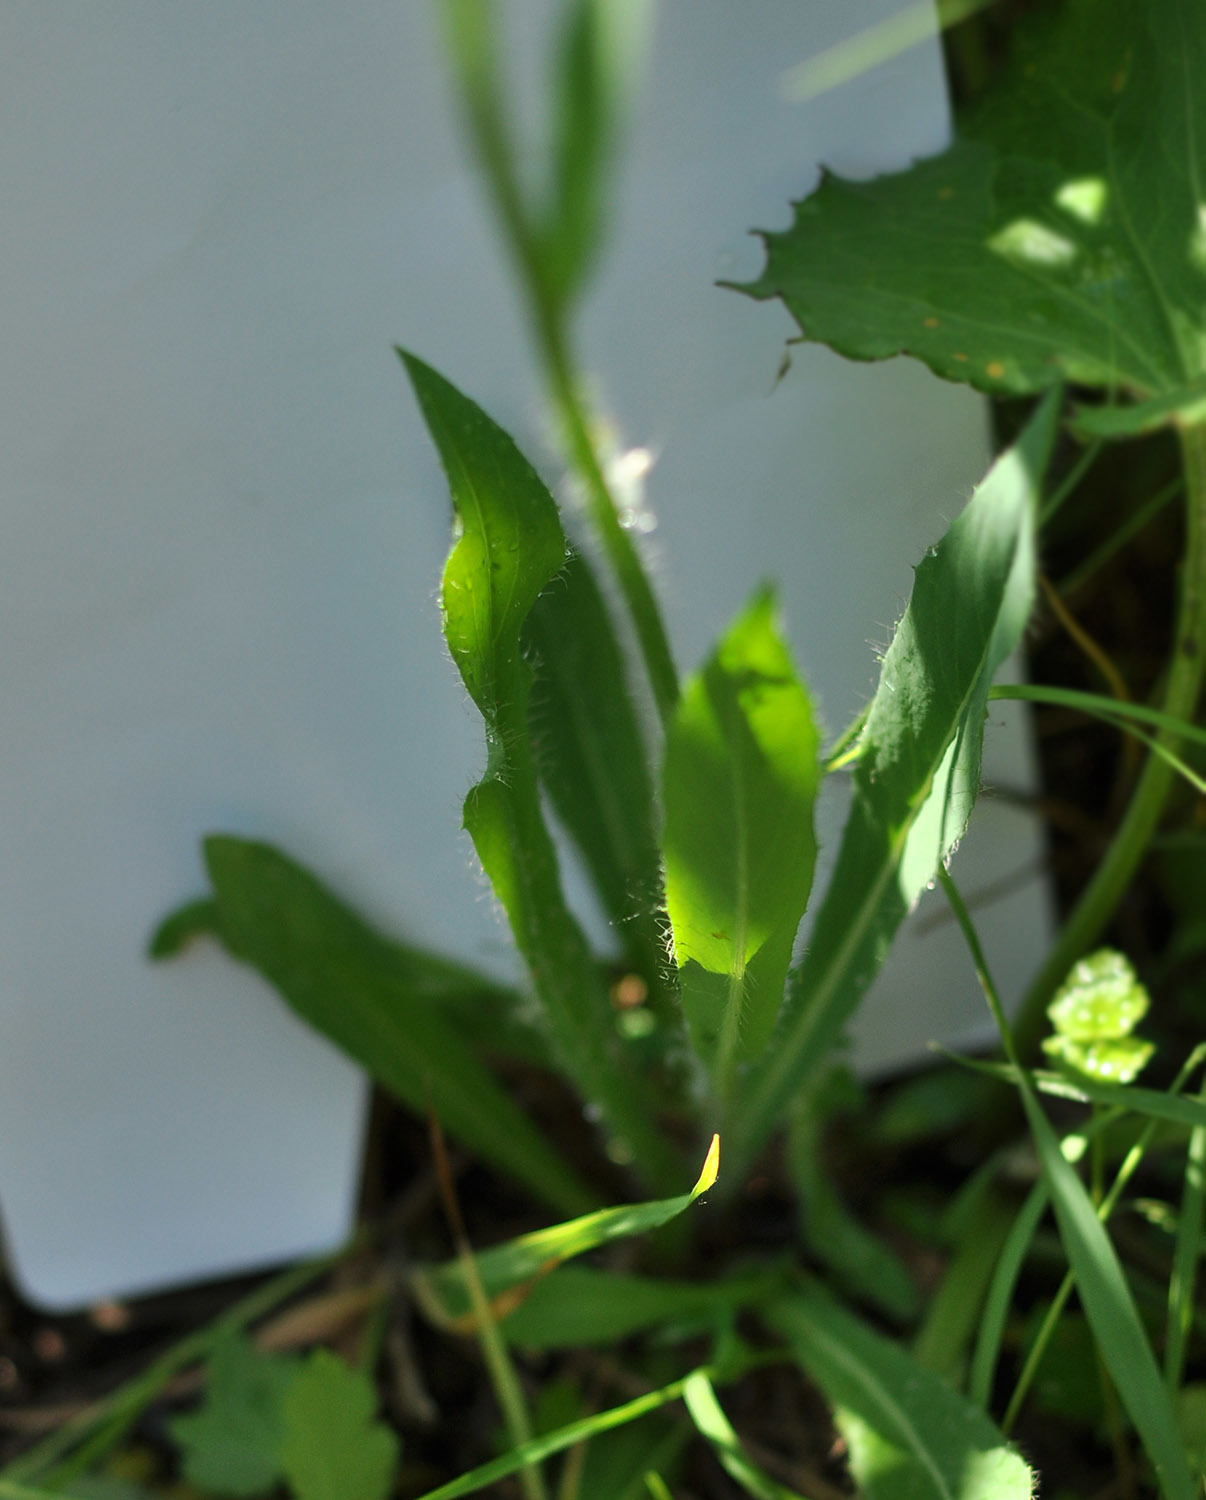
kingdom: Plantae
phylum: Tracheophyta
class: Magnoliopsida
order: Asterales
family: Asteraceae
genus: Pilosella
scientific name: Pilosella
